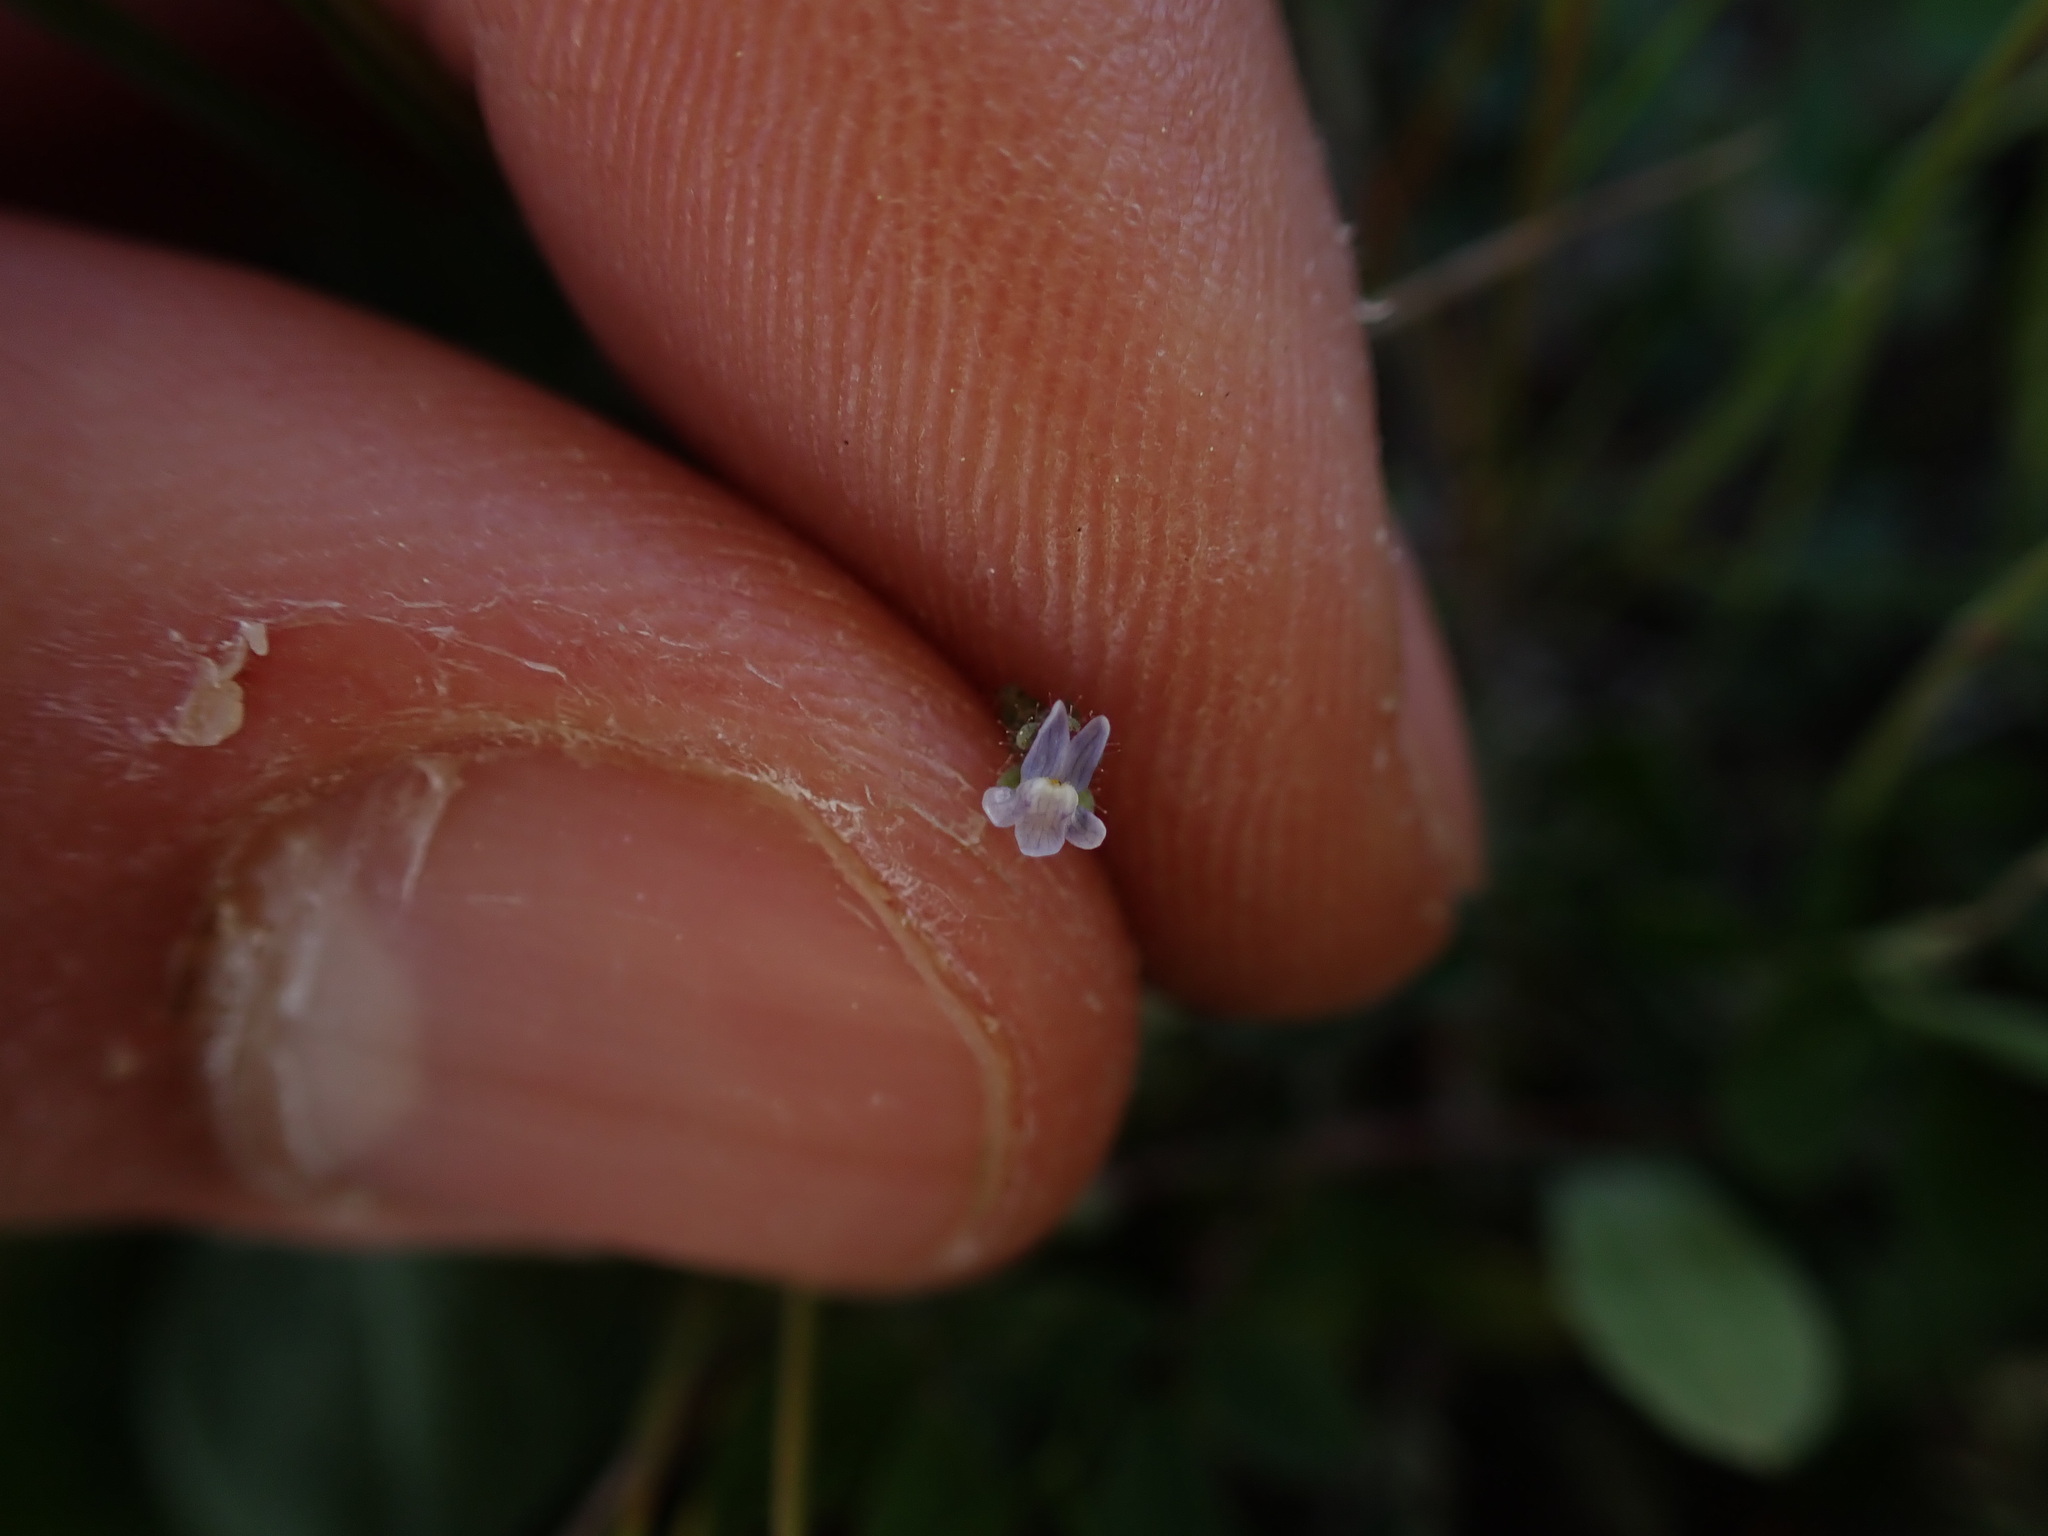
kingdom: Plantae
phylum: Tracheophyta
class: Magnoliopsida
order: Lamiales
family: Plantaginaceae
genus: Linaria
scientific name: Linaria arvensis
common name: Corn toadflax
